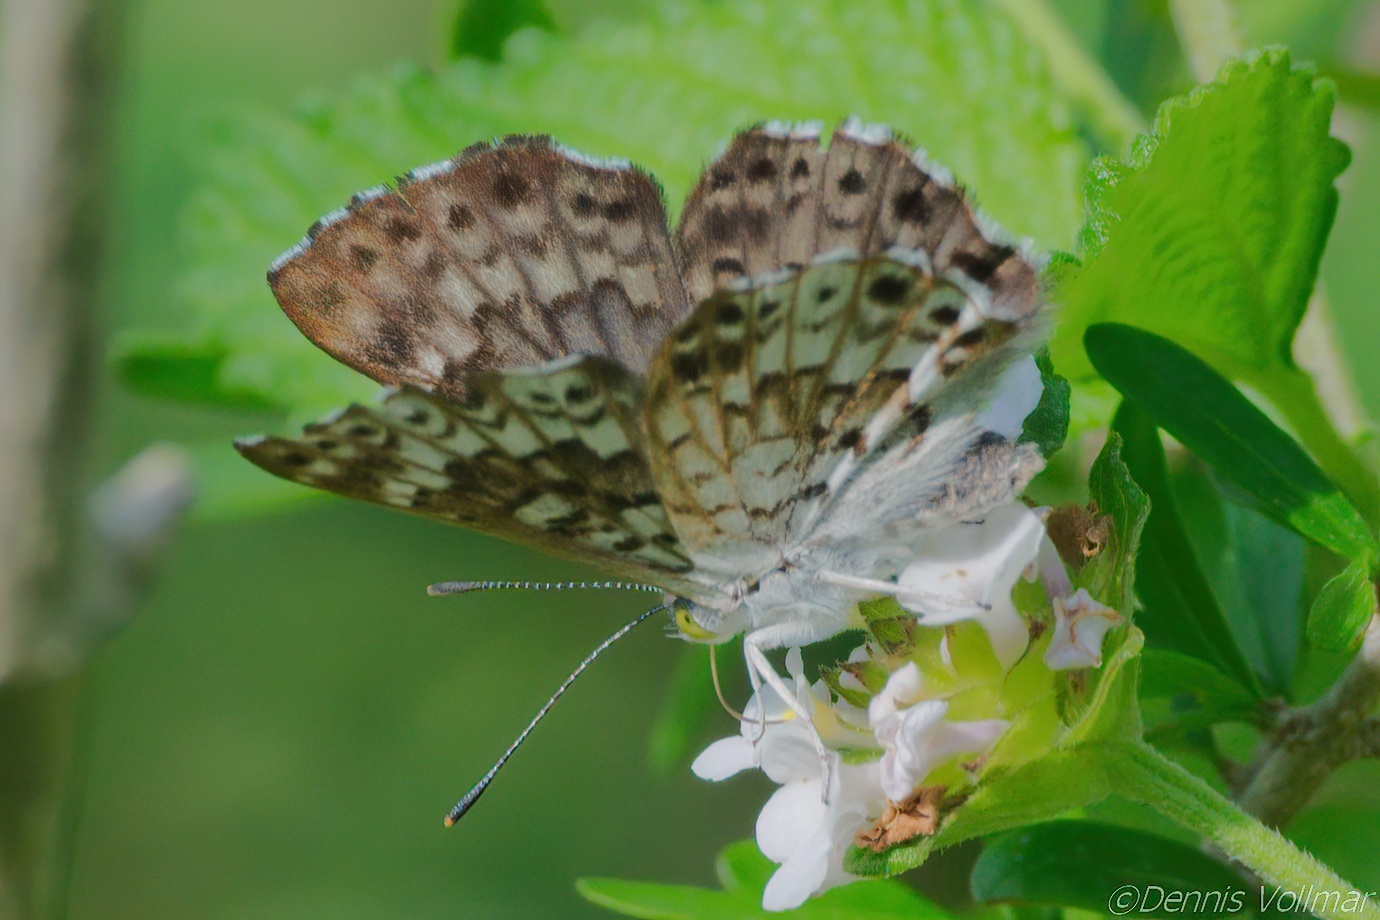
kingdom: Animalia
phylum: Arthropoda
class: Insecta
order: Lepidoptera
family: Riodinidae
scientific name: Riodinidae
